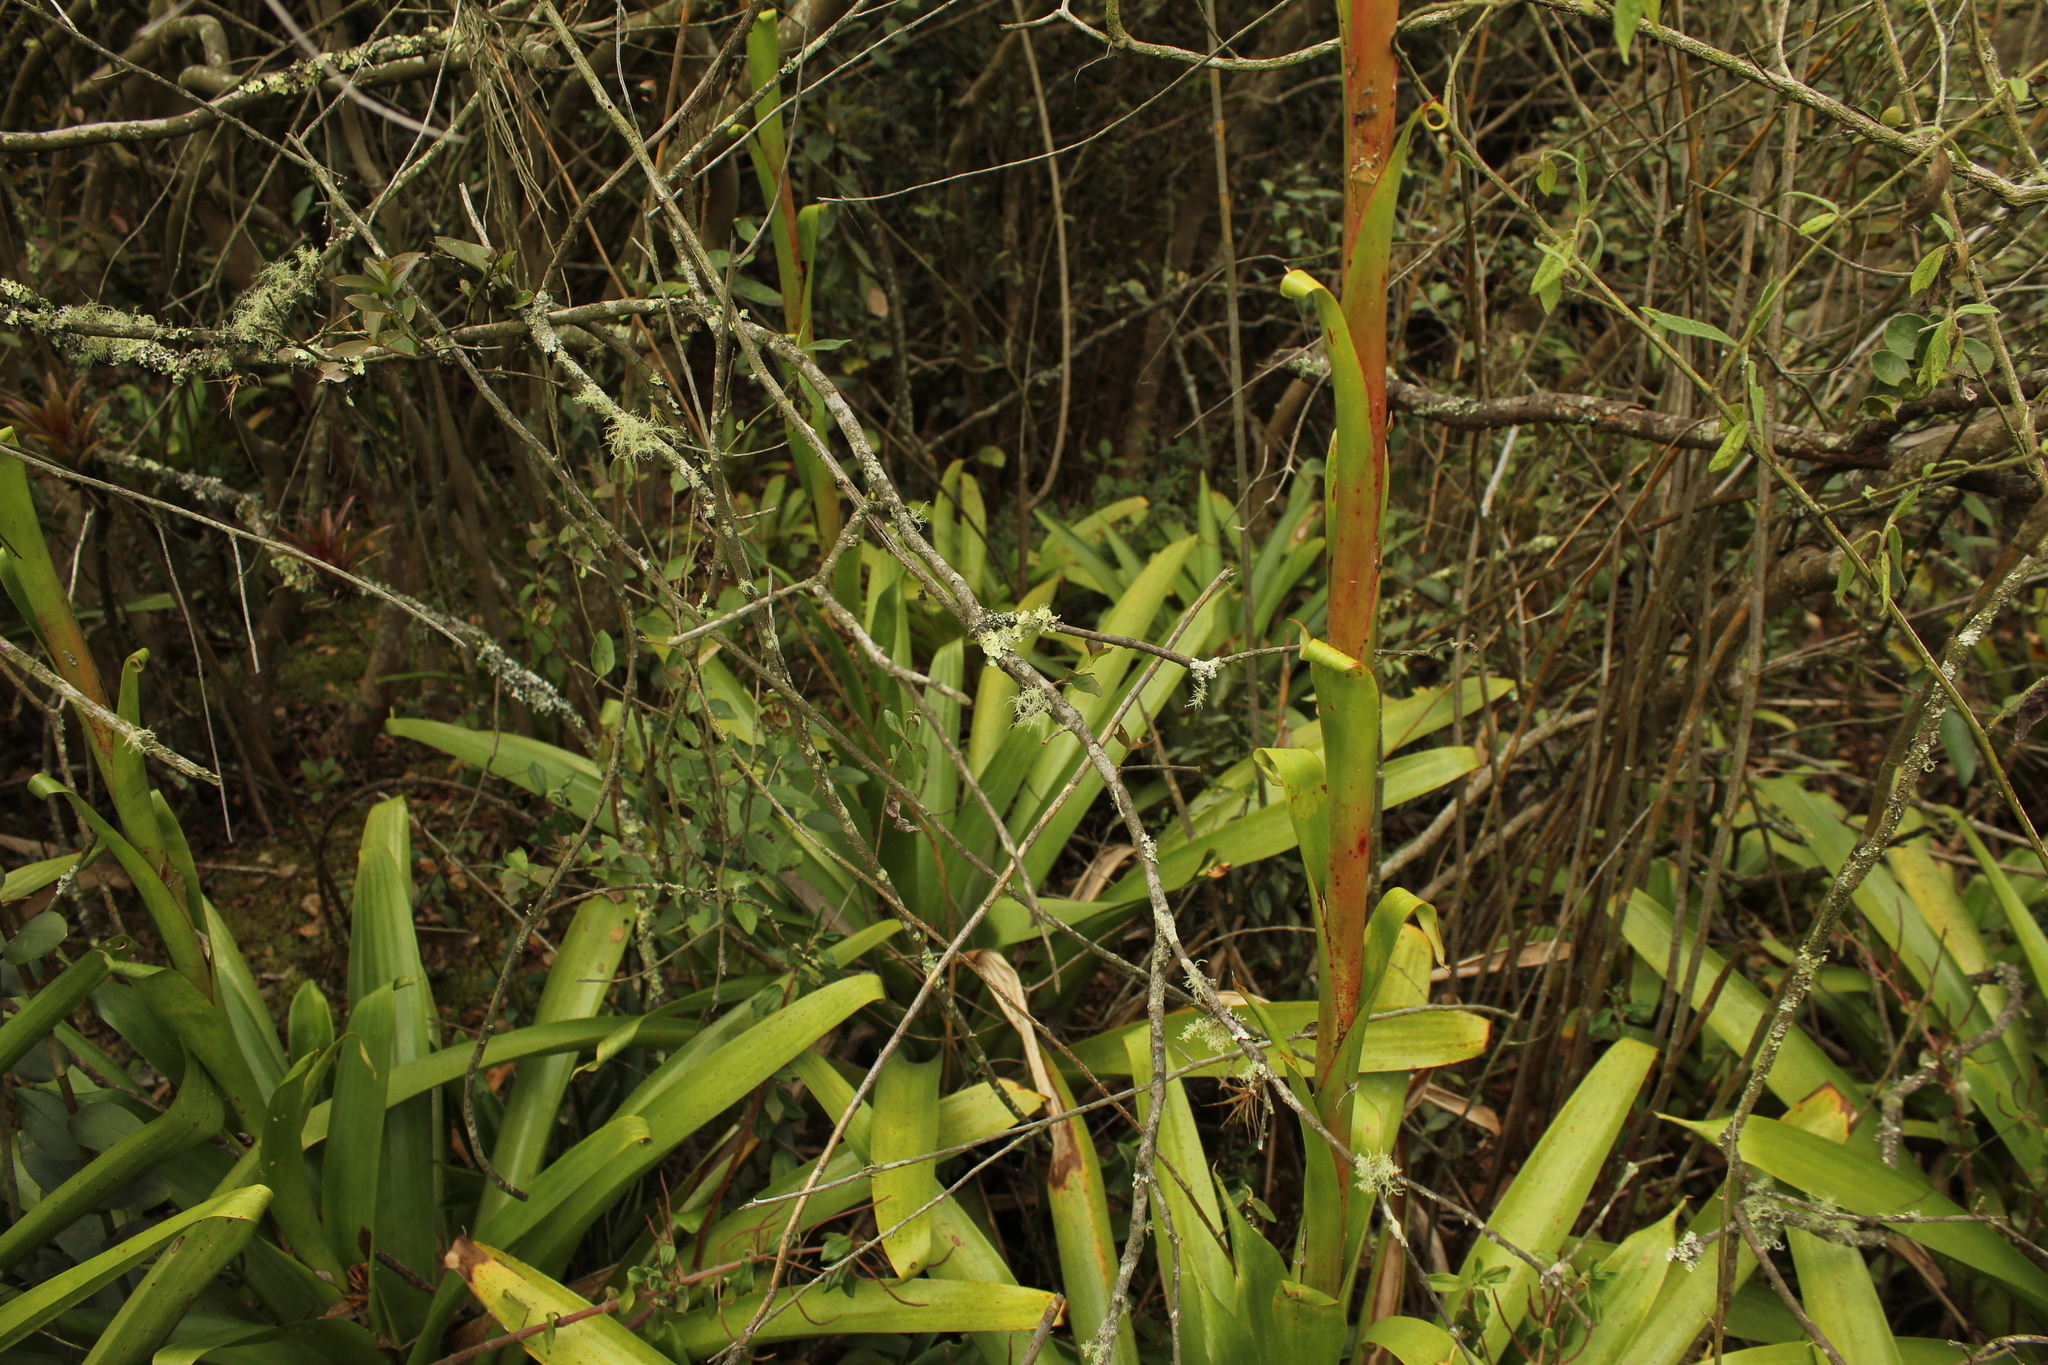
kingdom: Plantae
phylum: Tracheophyta
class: Liliopsida
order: Poales
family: Bromeliaceae
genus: Tillandsia
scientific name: Tillandsia denudata
